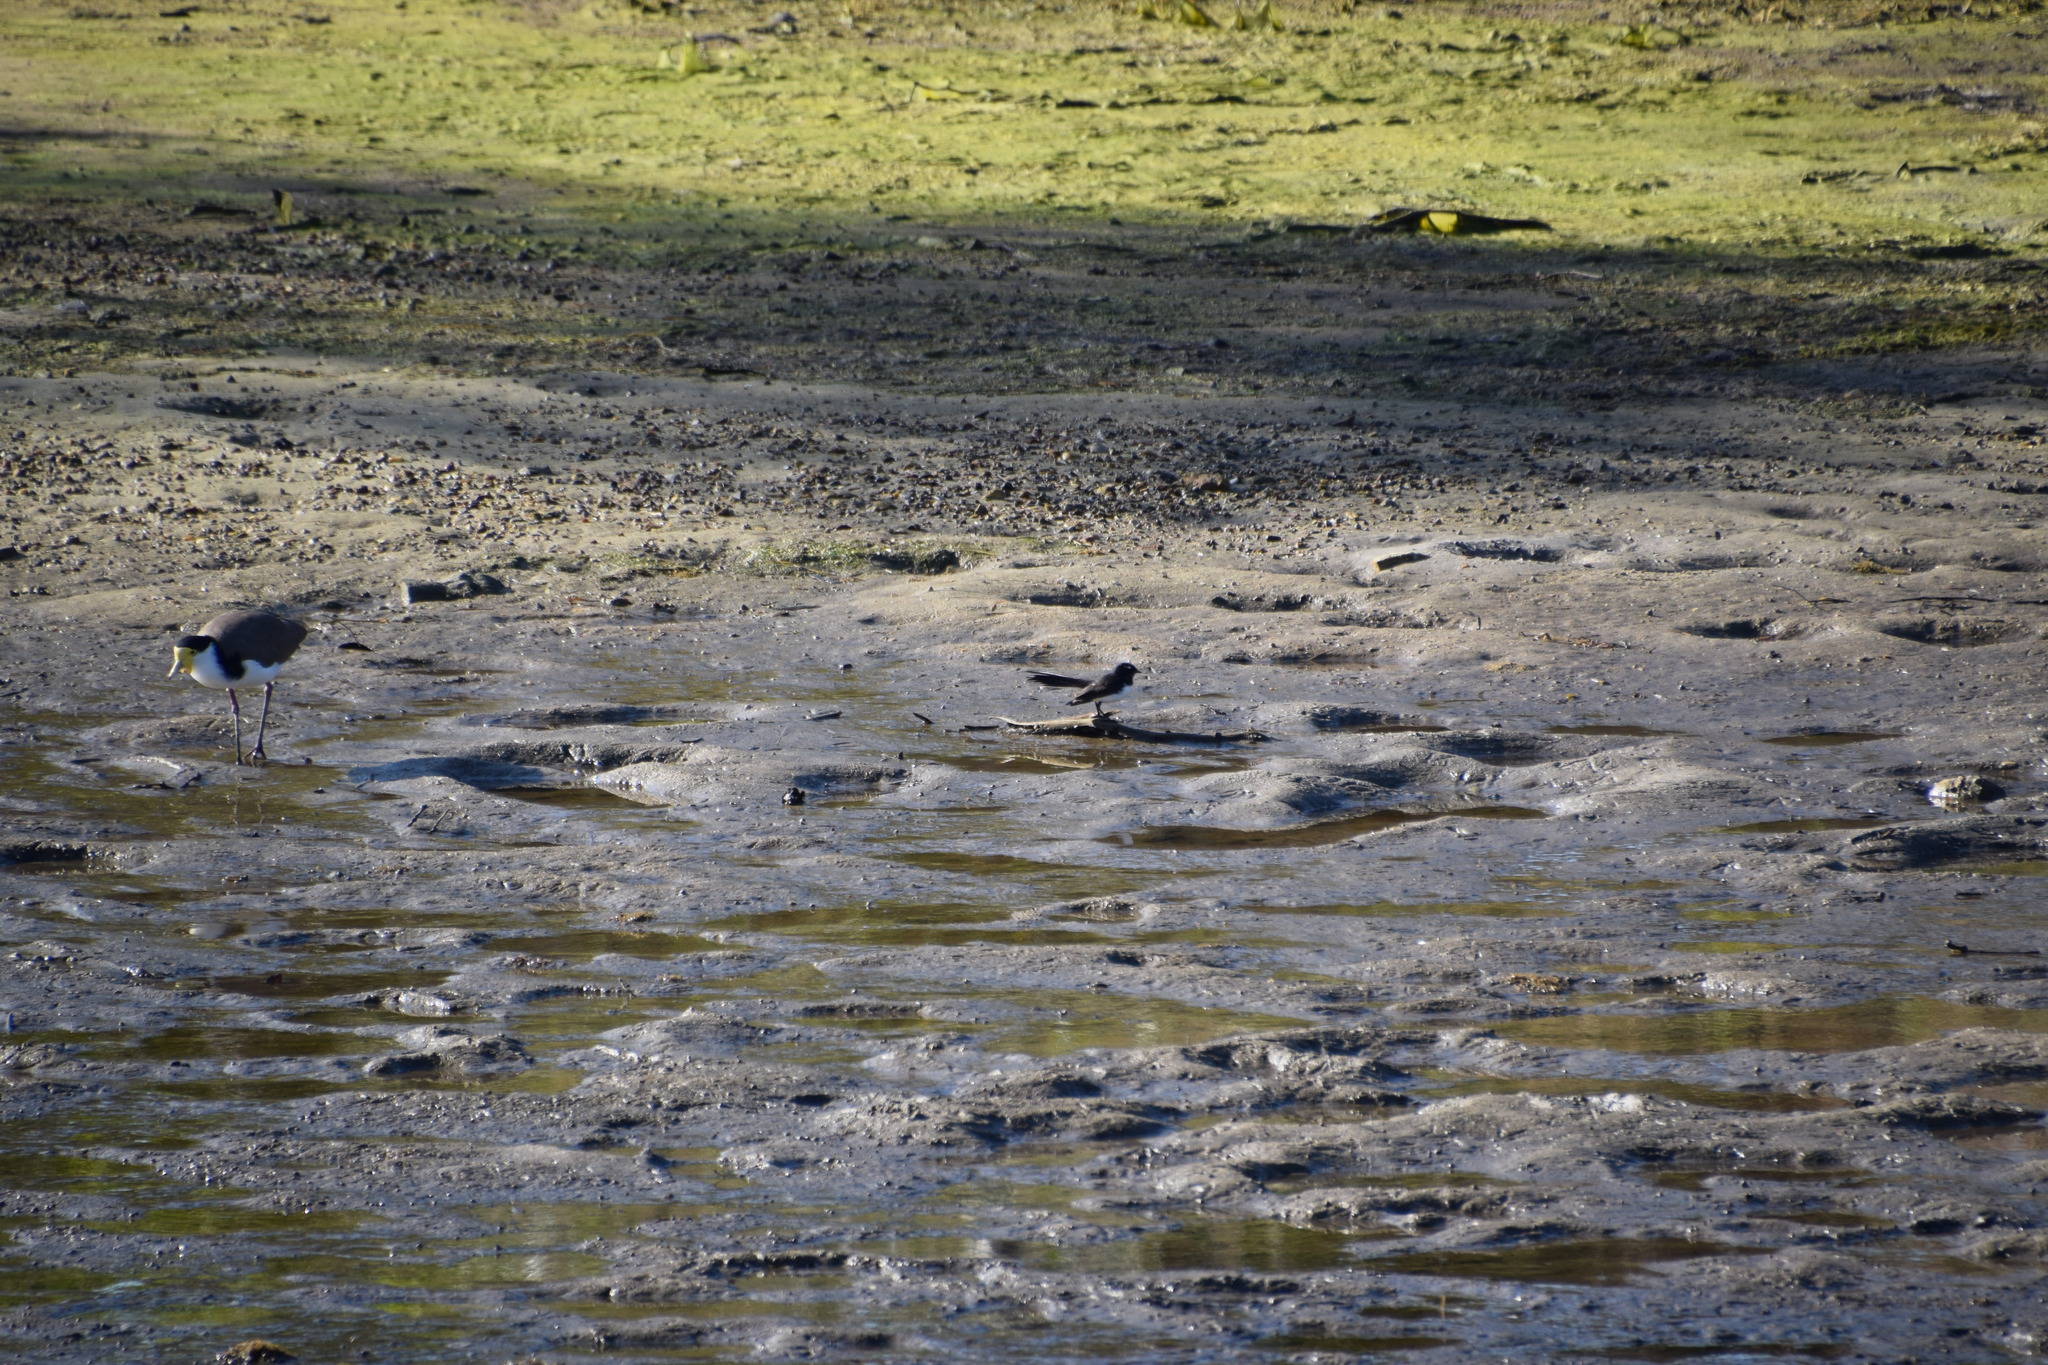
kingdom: Animalia
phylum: Chordata
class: Aves
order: Charadriiformes
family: Charadriidae
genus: Vanellus
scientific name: Vanellus miles
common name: Masked lapwing
